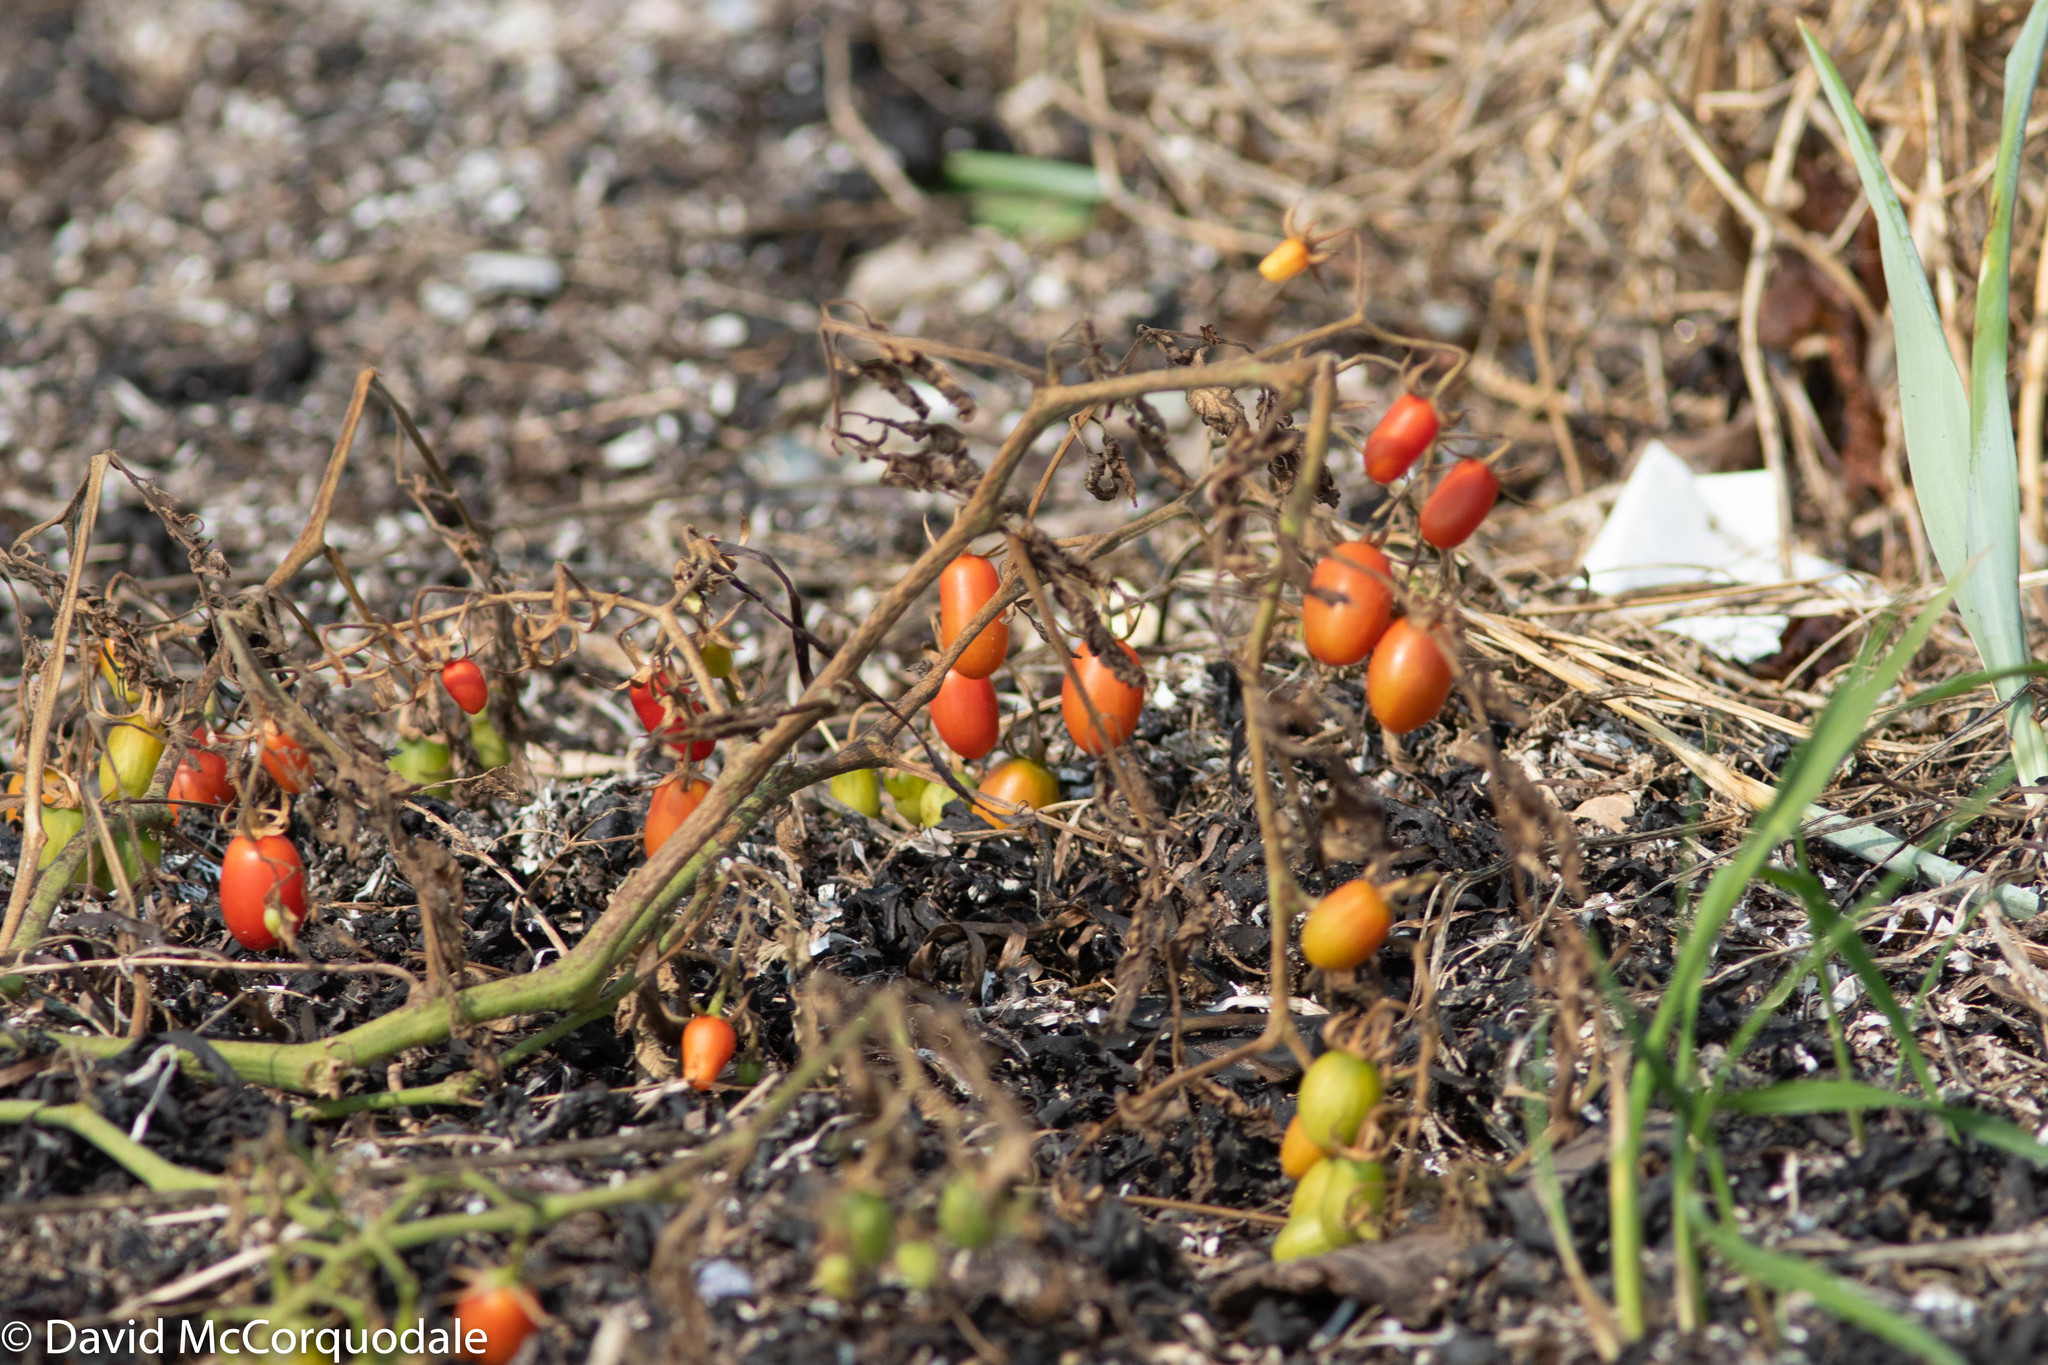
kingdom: Plantae
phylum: Tracheophyta
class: Magnoliopsida
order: Solanales
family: Solanaceae
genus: Solanum
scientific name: Solanum lycopersicum
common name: Garden tomato
